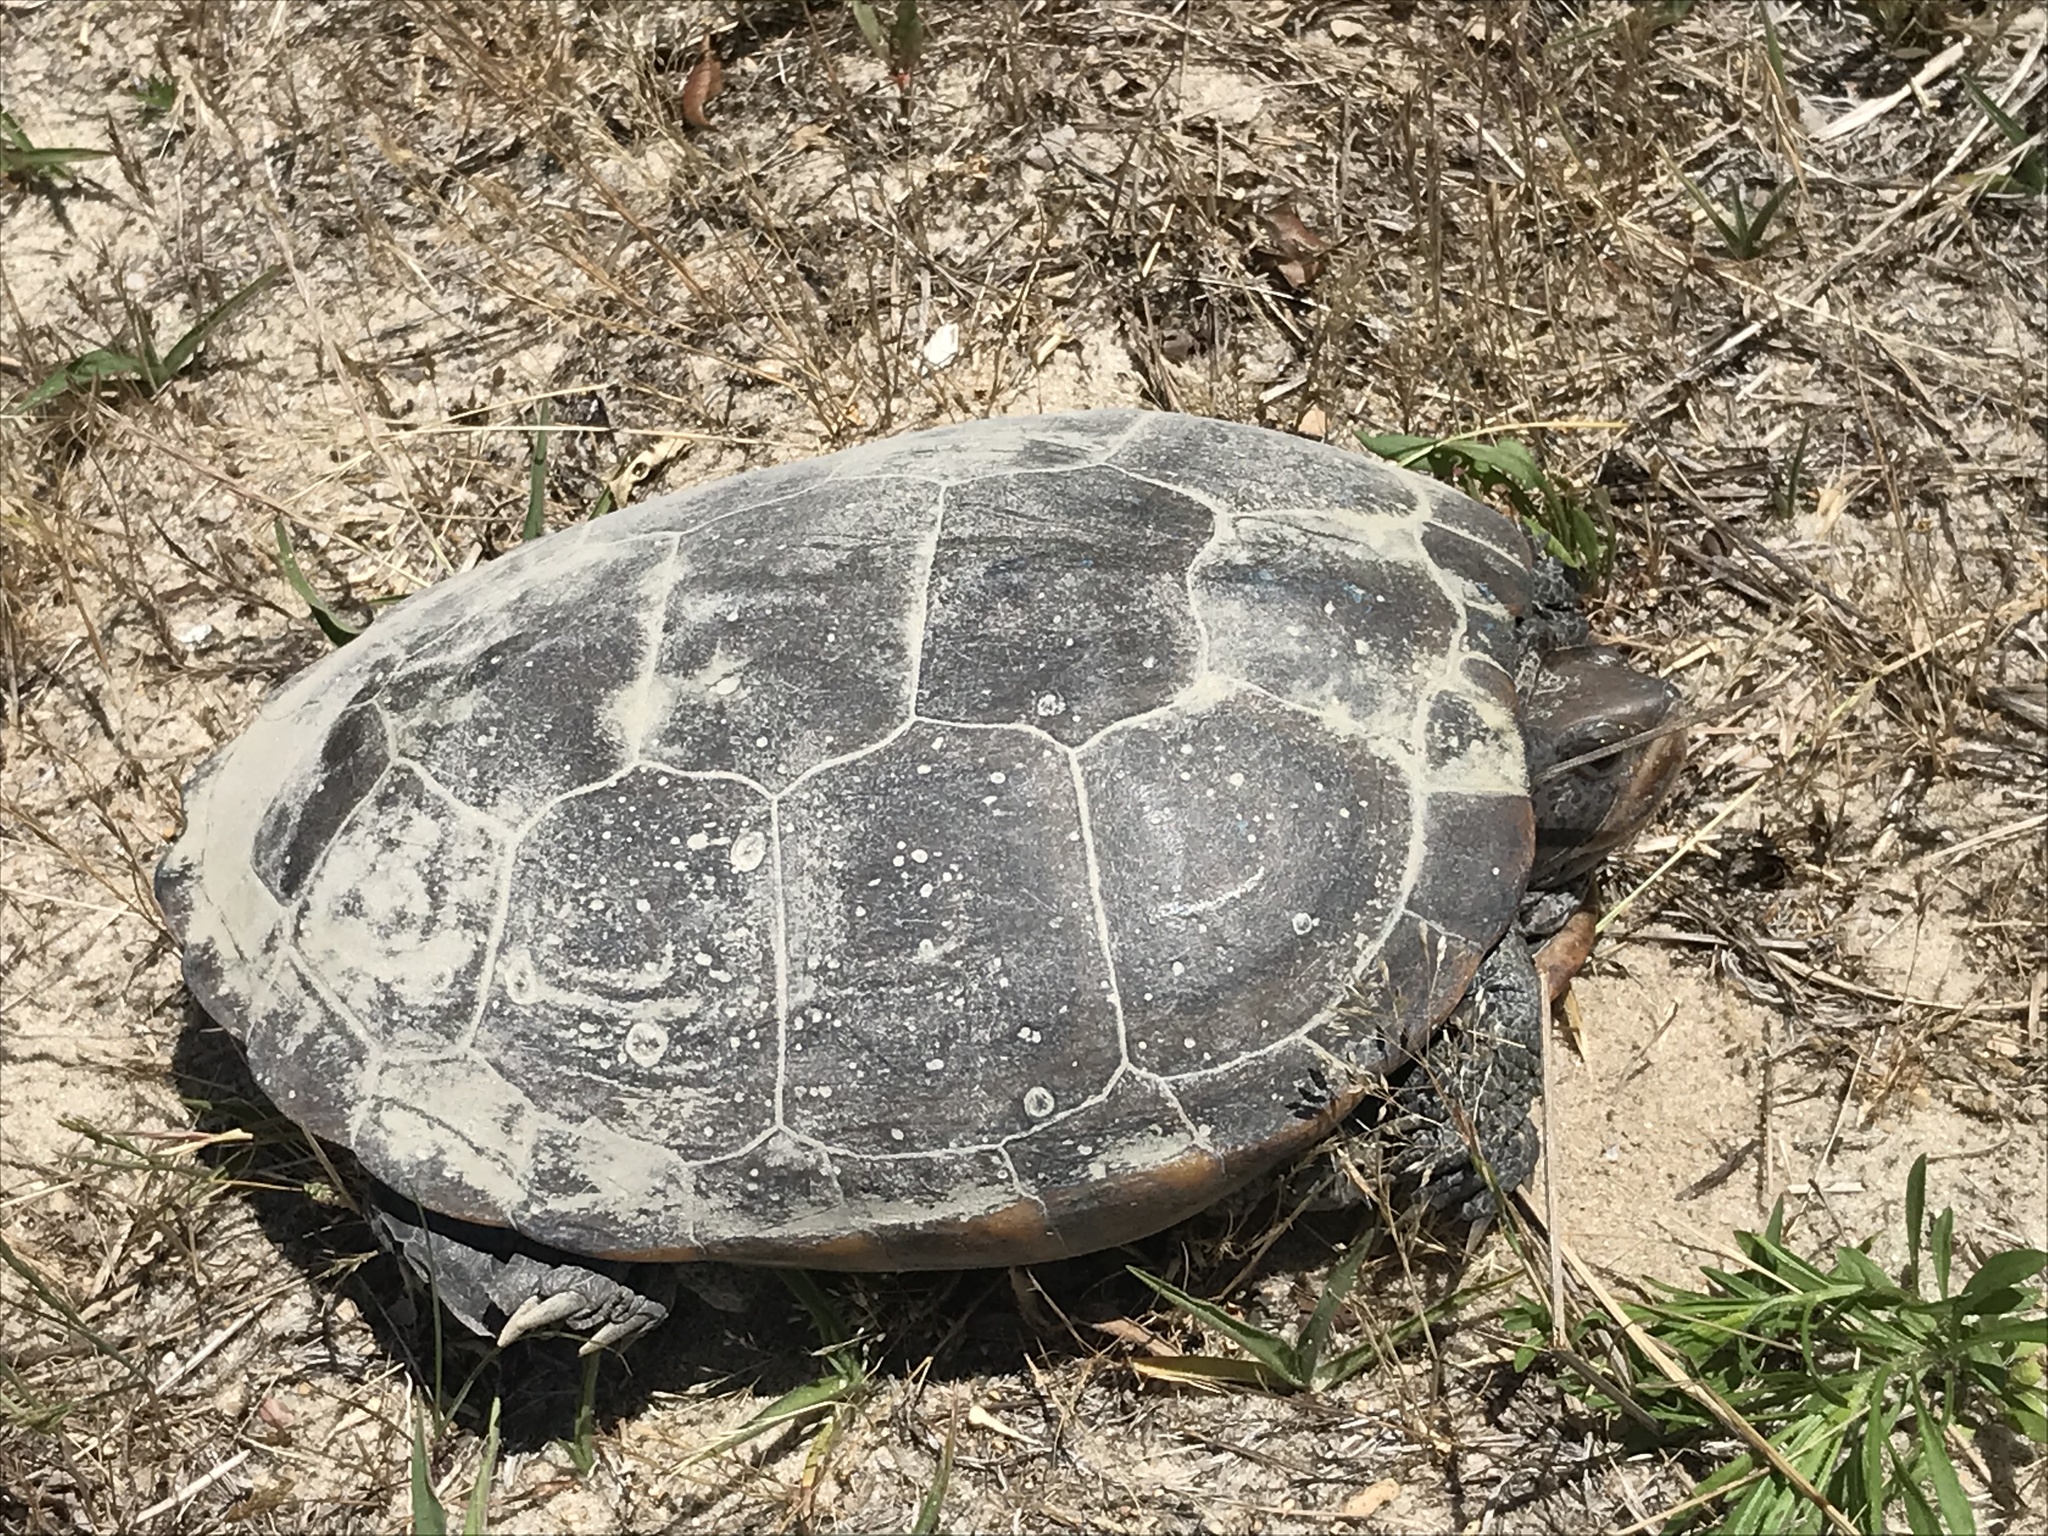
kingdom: Animalia
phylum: Chordata
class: Testudines
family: Emydidae
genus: Malaclemys
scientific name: Malaclemys terrapin
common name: Diamondback terrapin
